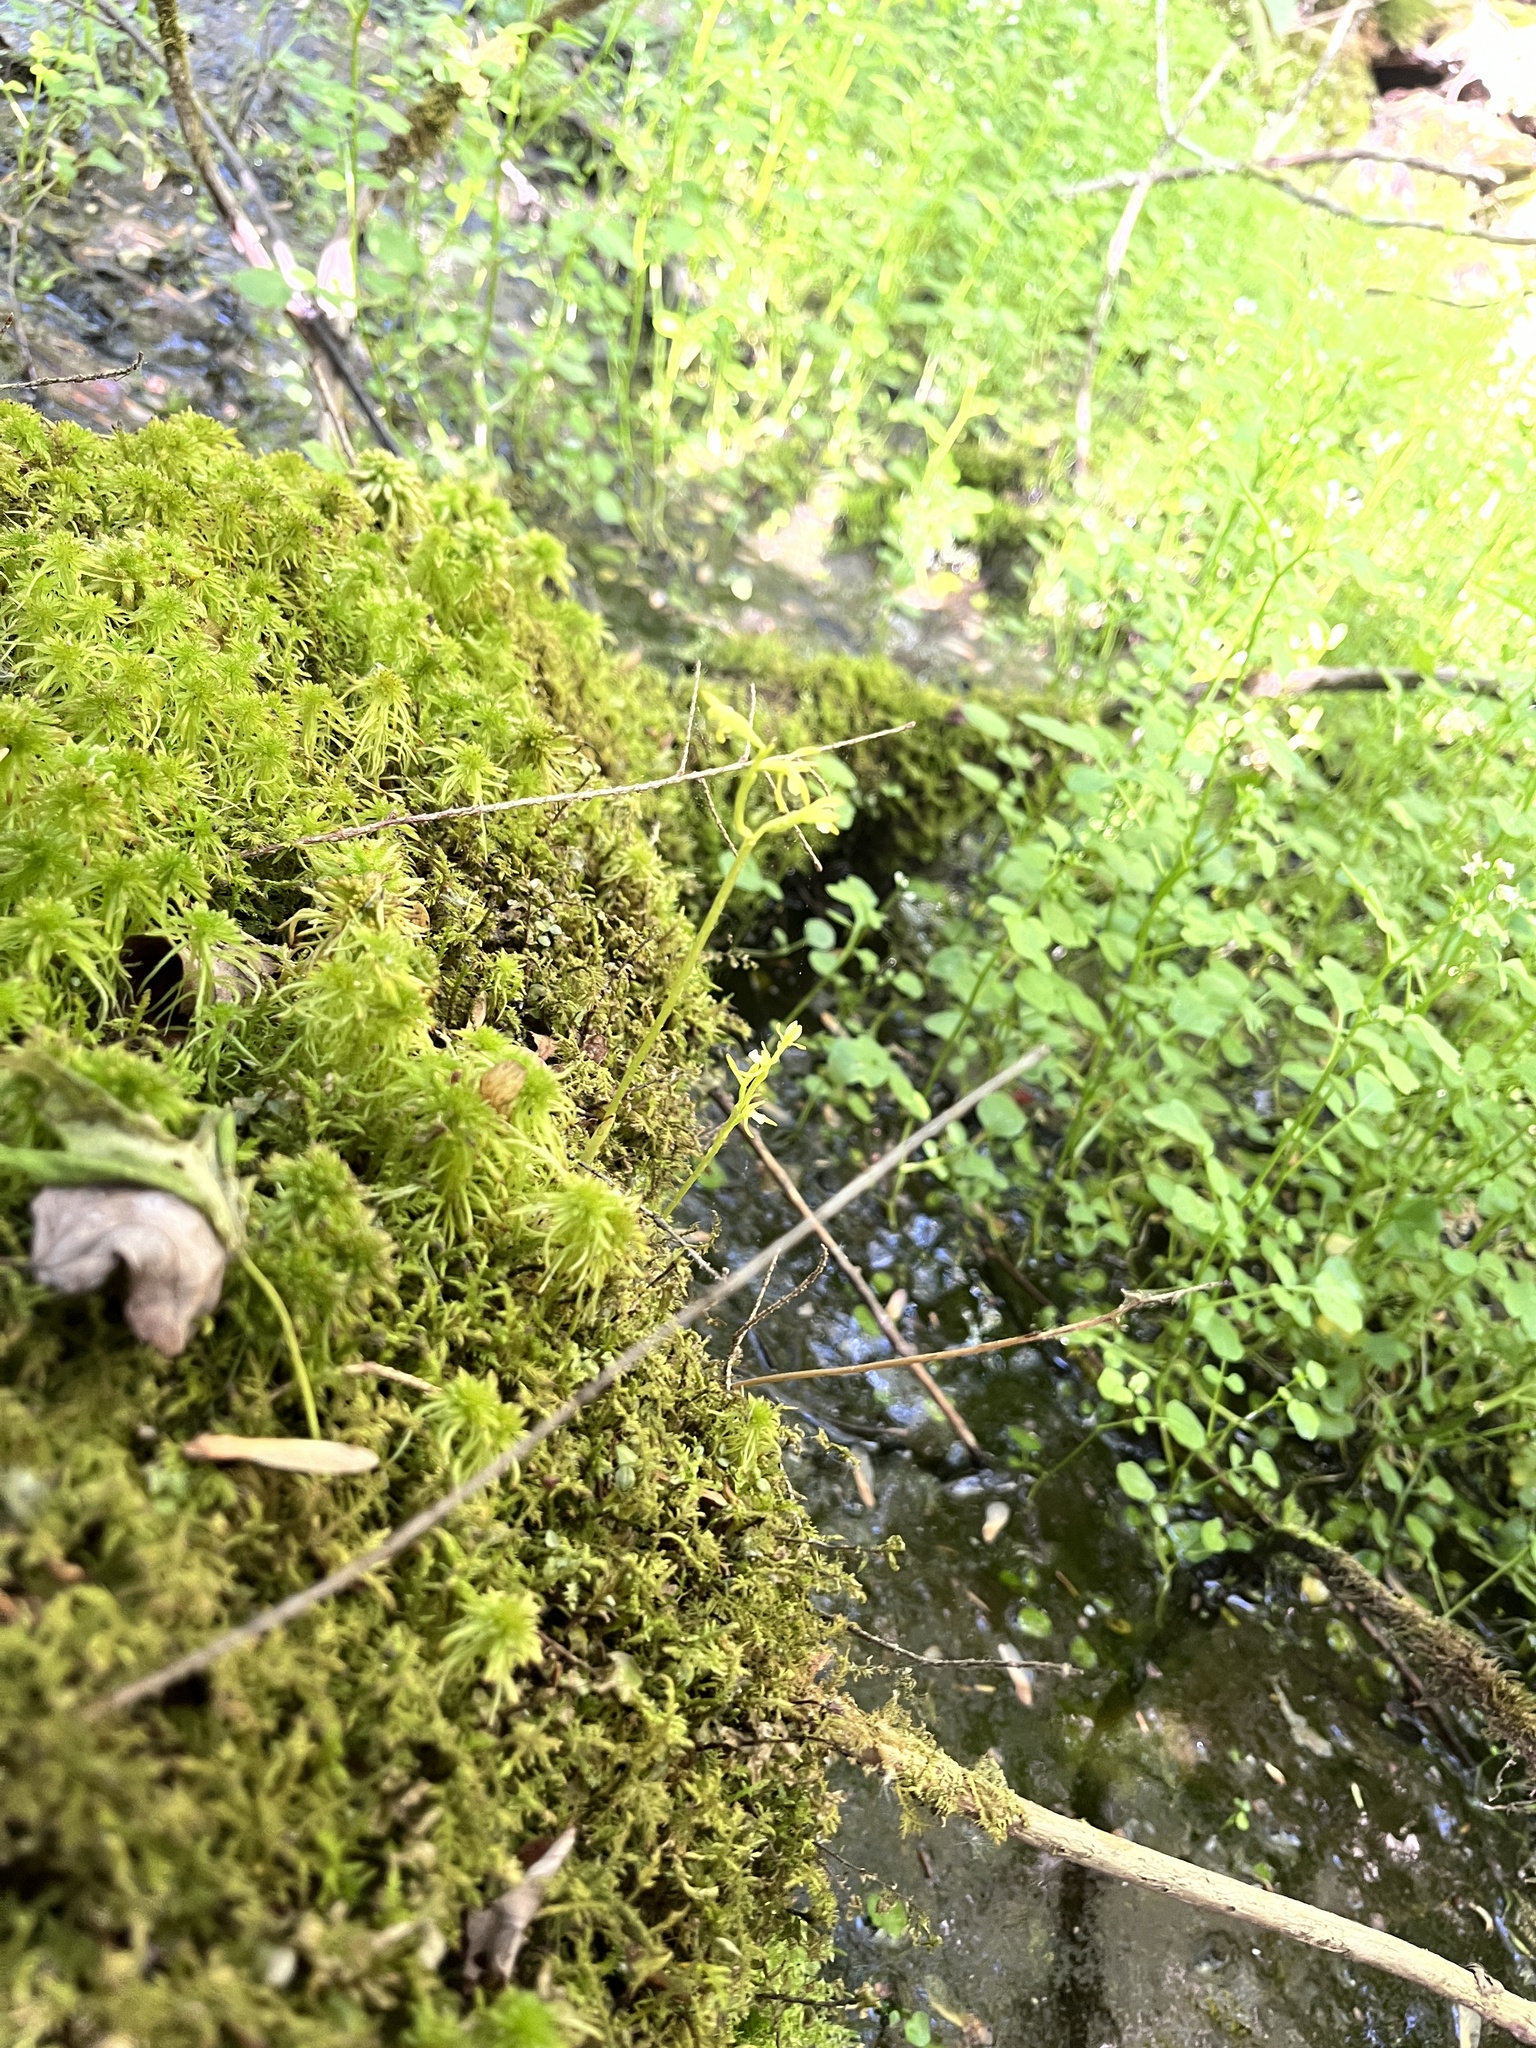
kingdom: Plantae
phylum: Tracheophyta
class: Liliopsida
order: Asparagales
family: Orchidaceae
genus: Corallorhiza
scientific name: Corallorhiza trifida
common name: Yellow coralroot
